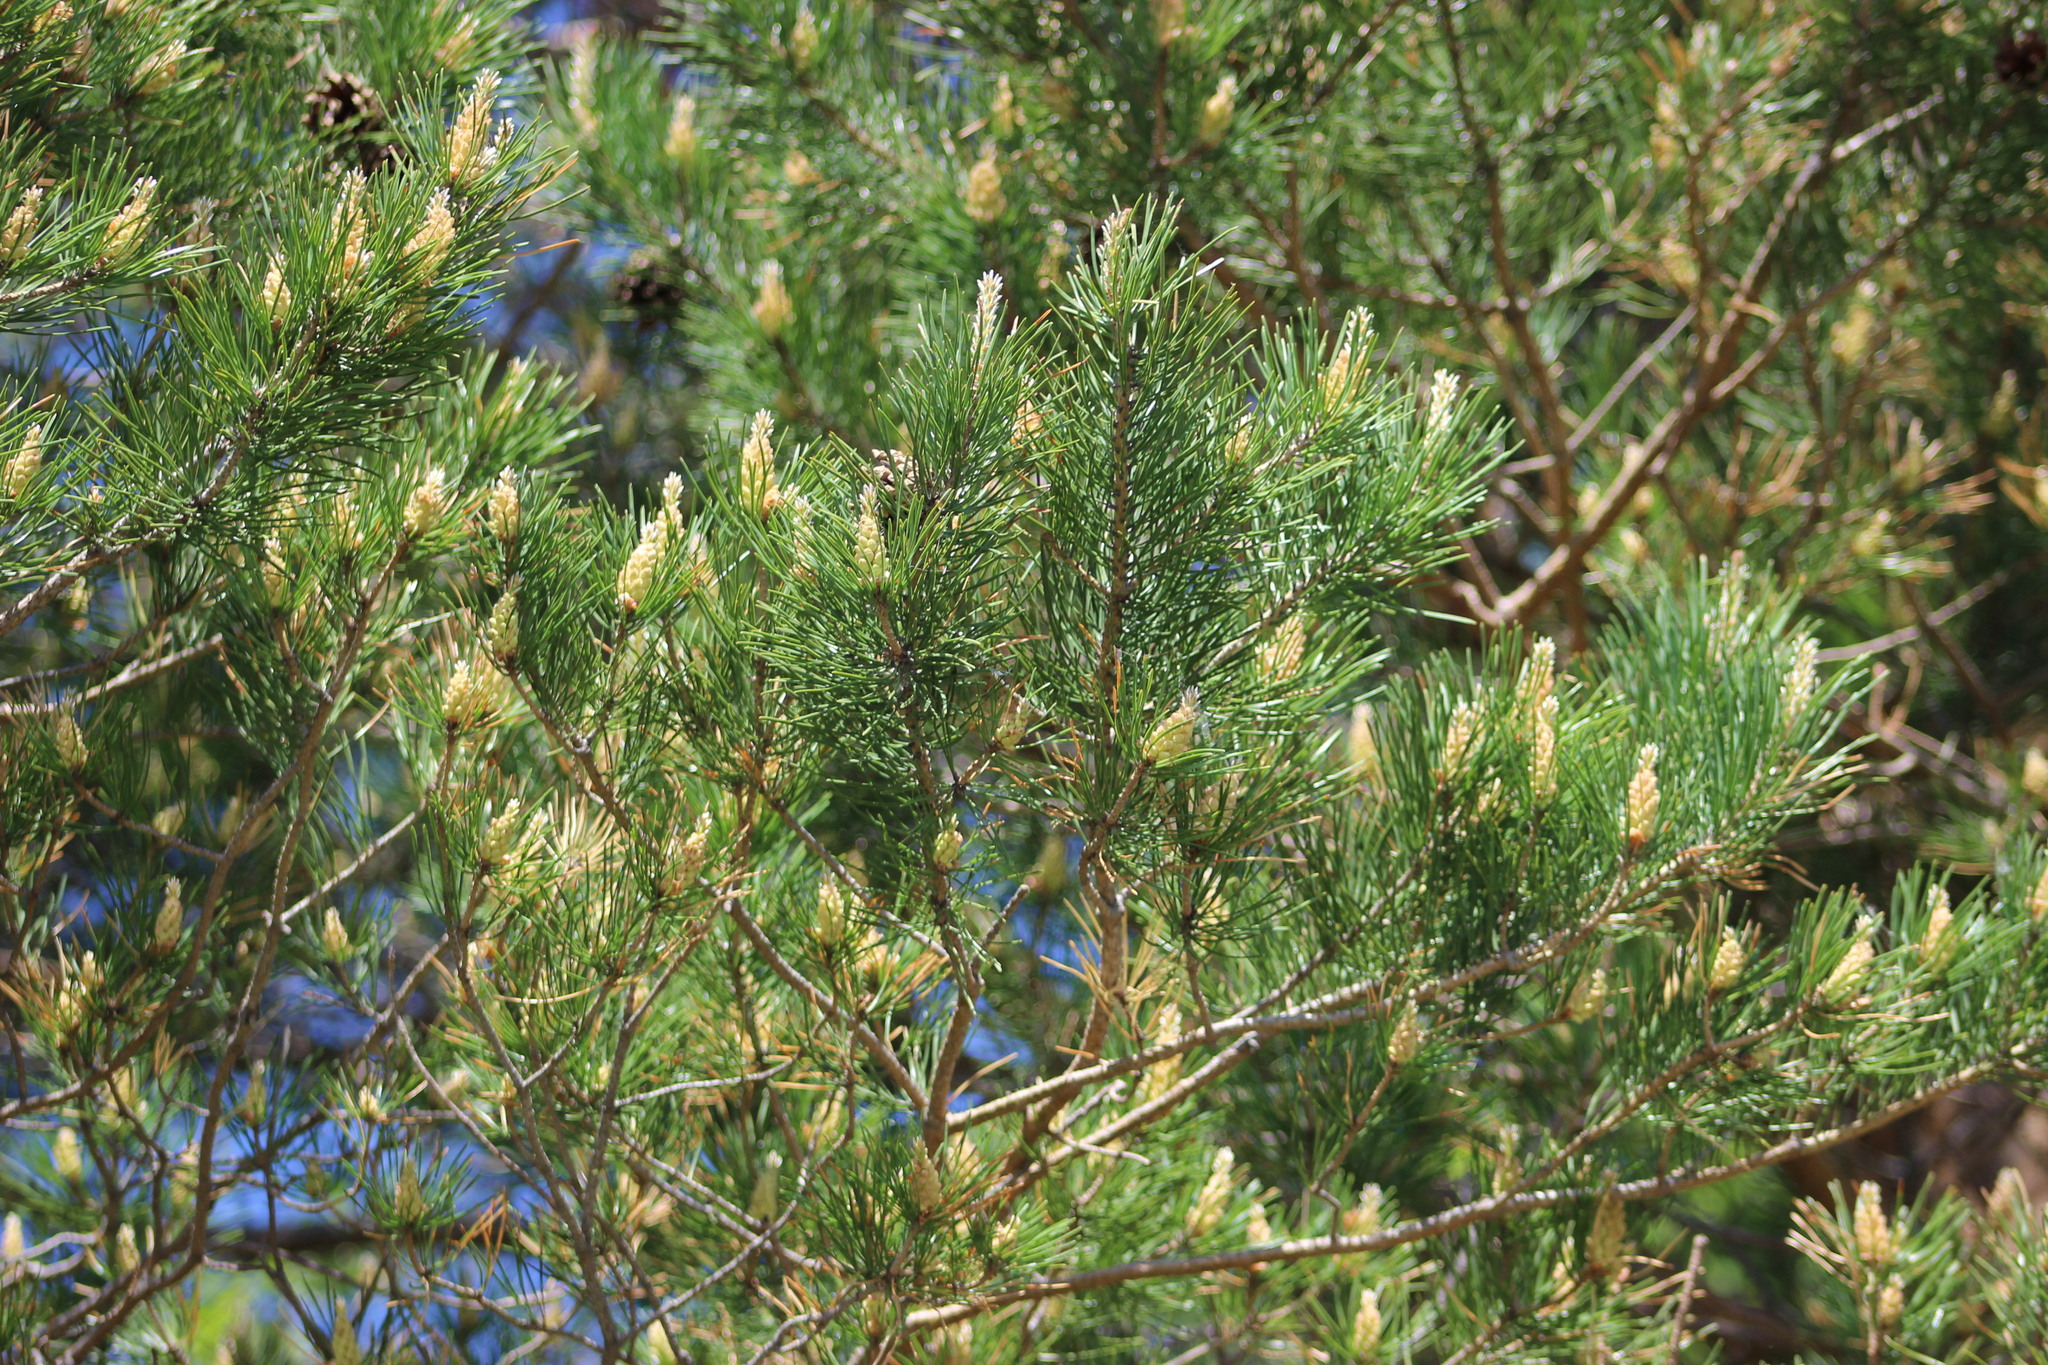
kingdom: Plantae
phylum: Tracheophyta
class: Pinopsida
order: Pinales
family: Pinaceae
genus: Pinus
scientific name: Pinus sylvestris
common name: Scots pine
